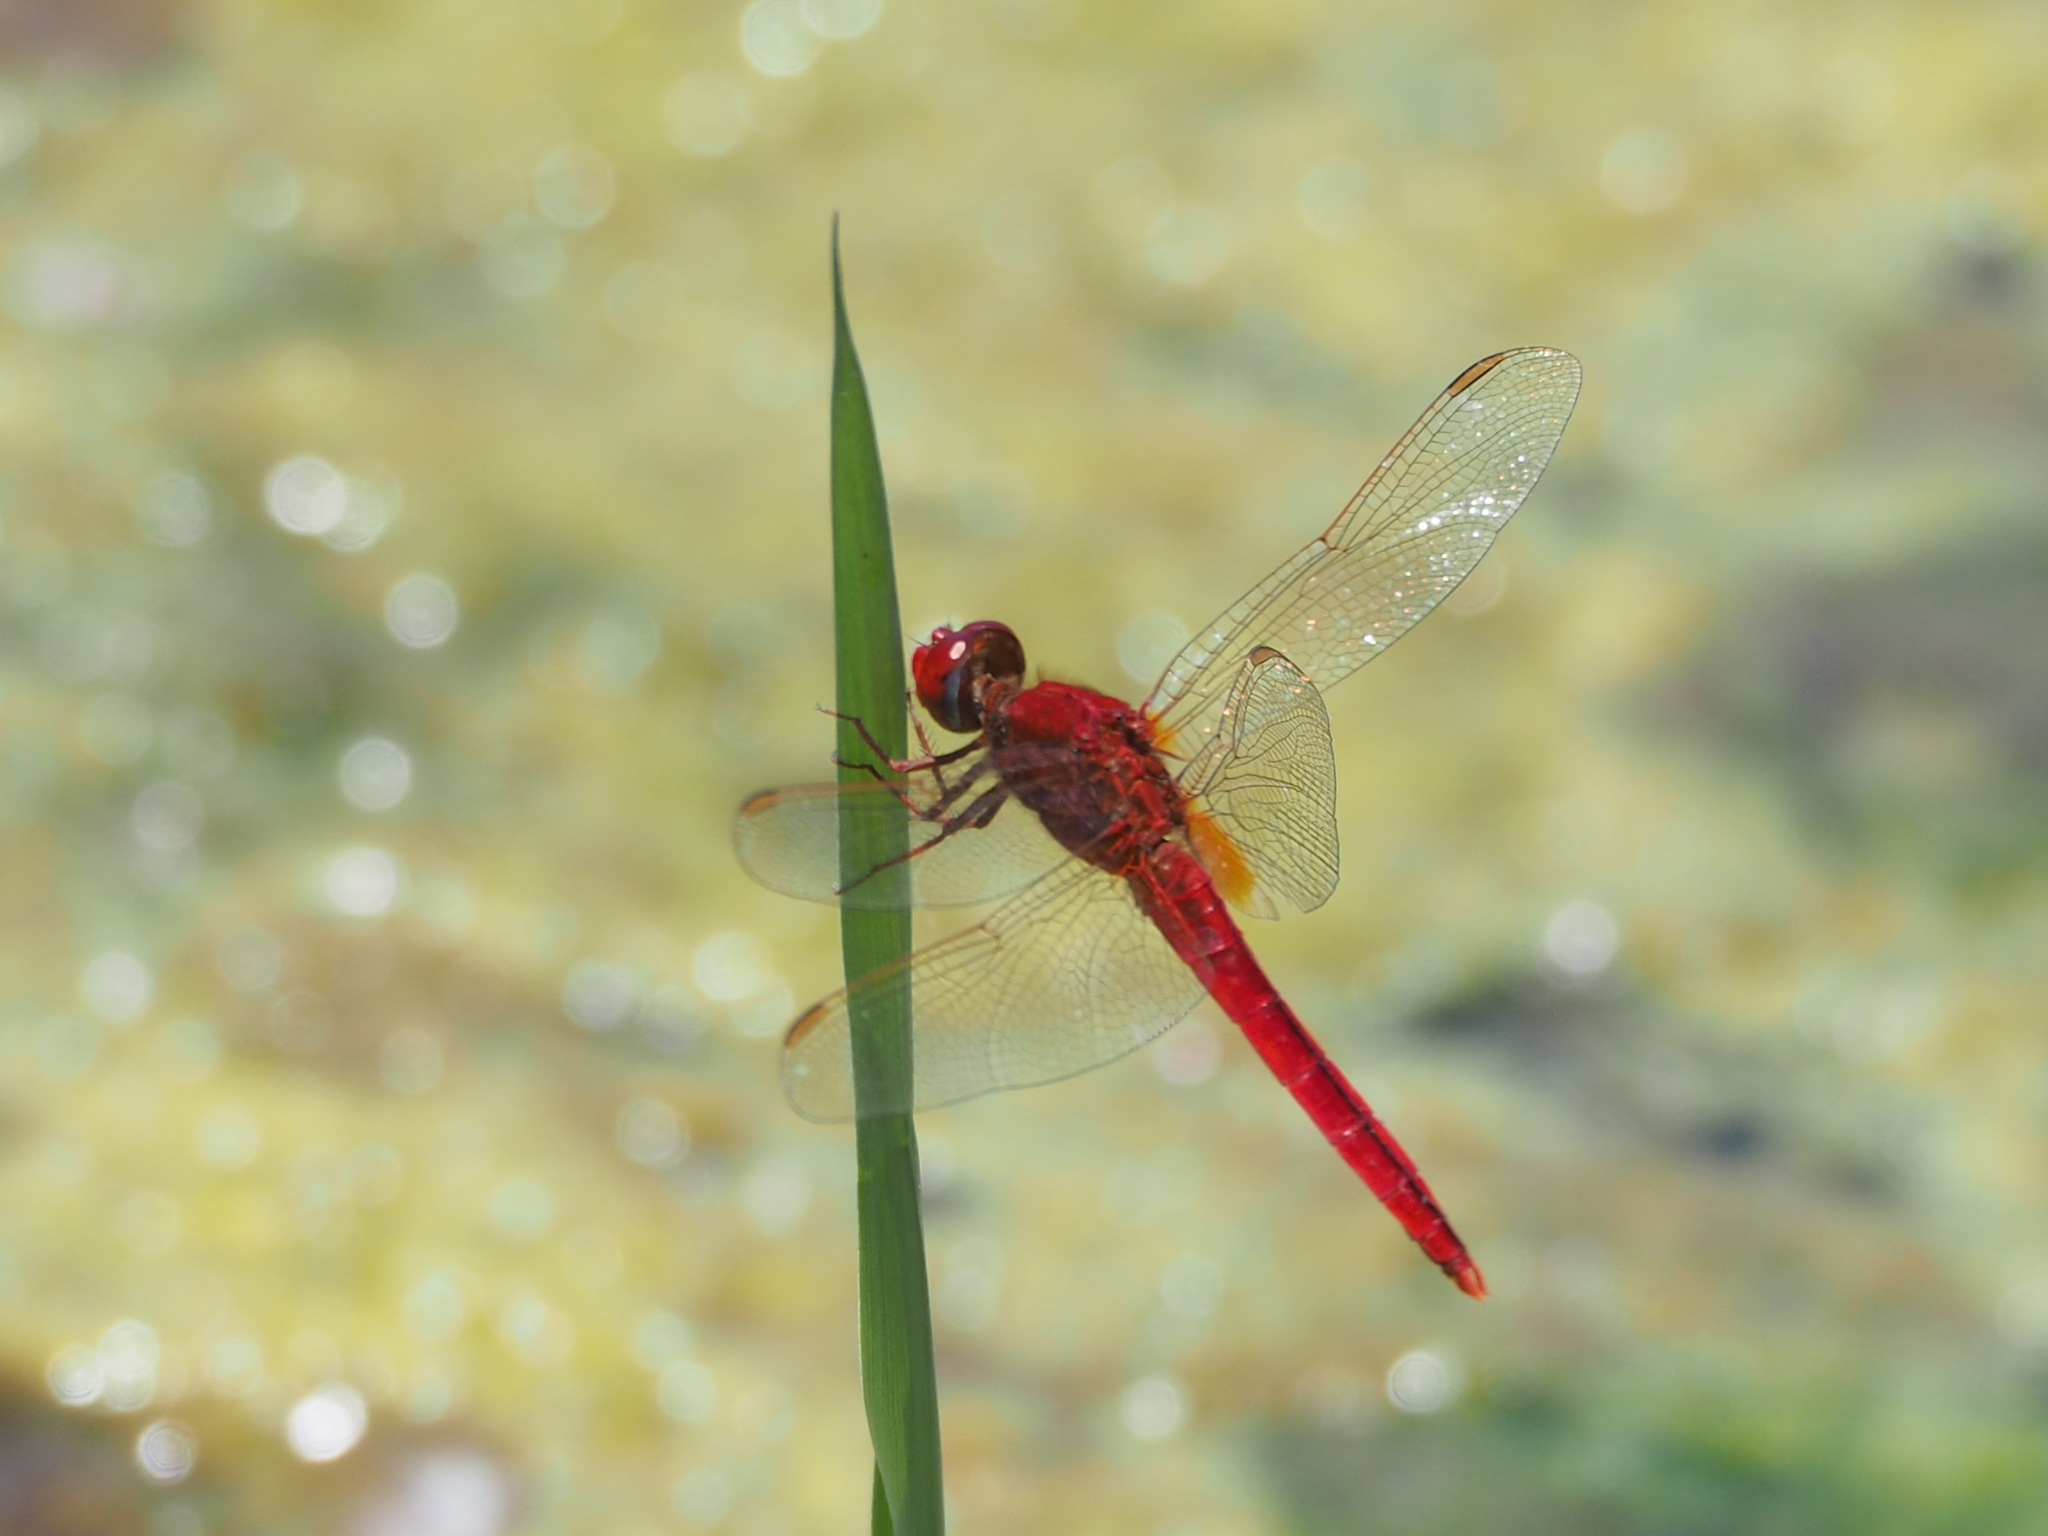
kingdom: Animalia
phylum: Arthropoda
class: Insecta
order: Odonata
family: Libellulidae
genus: Crocothemis
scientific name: Crocothemis servilia
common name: Scarlet skimmer
